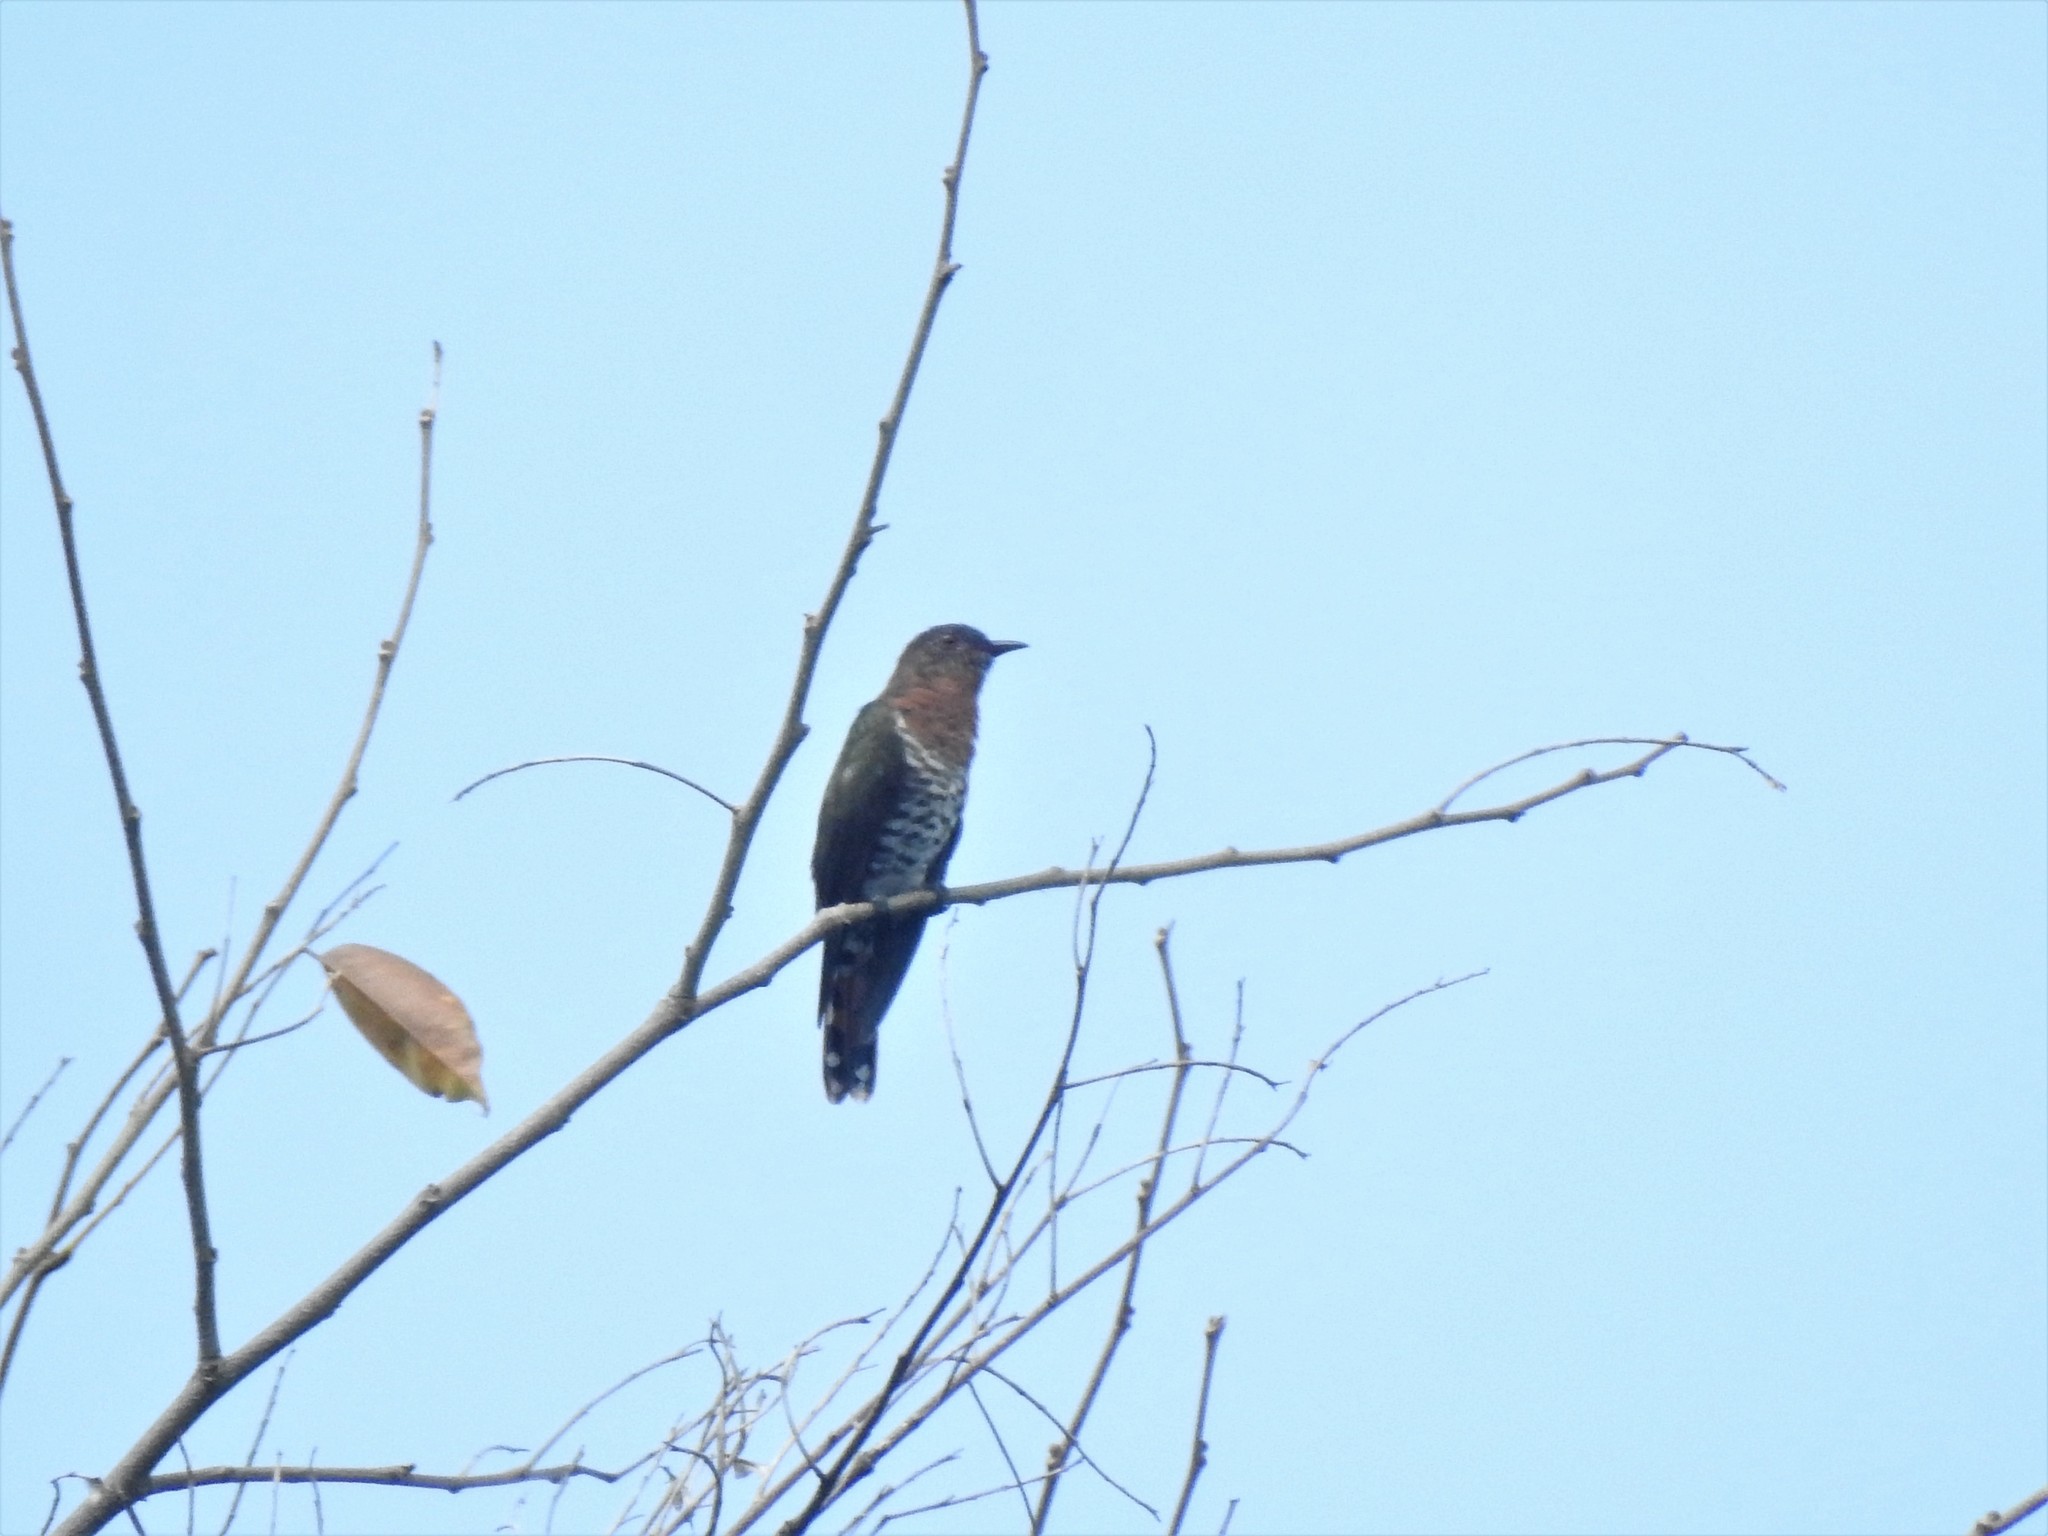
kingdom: Animalia
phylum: Chordata
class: Aves
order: Cuculiformes
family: Cuculidae
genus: Chrysococcyx
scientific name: Chrysococcyx xanthorhynchus
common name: Violet cuckoo
